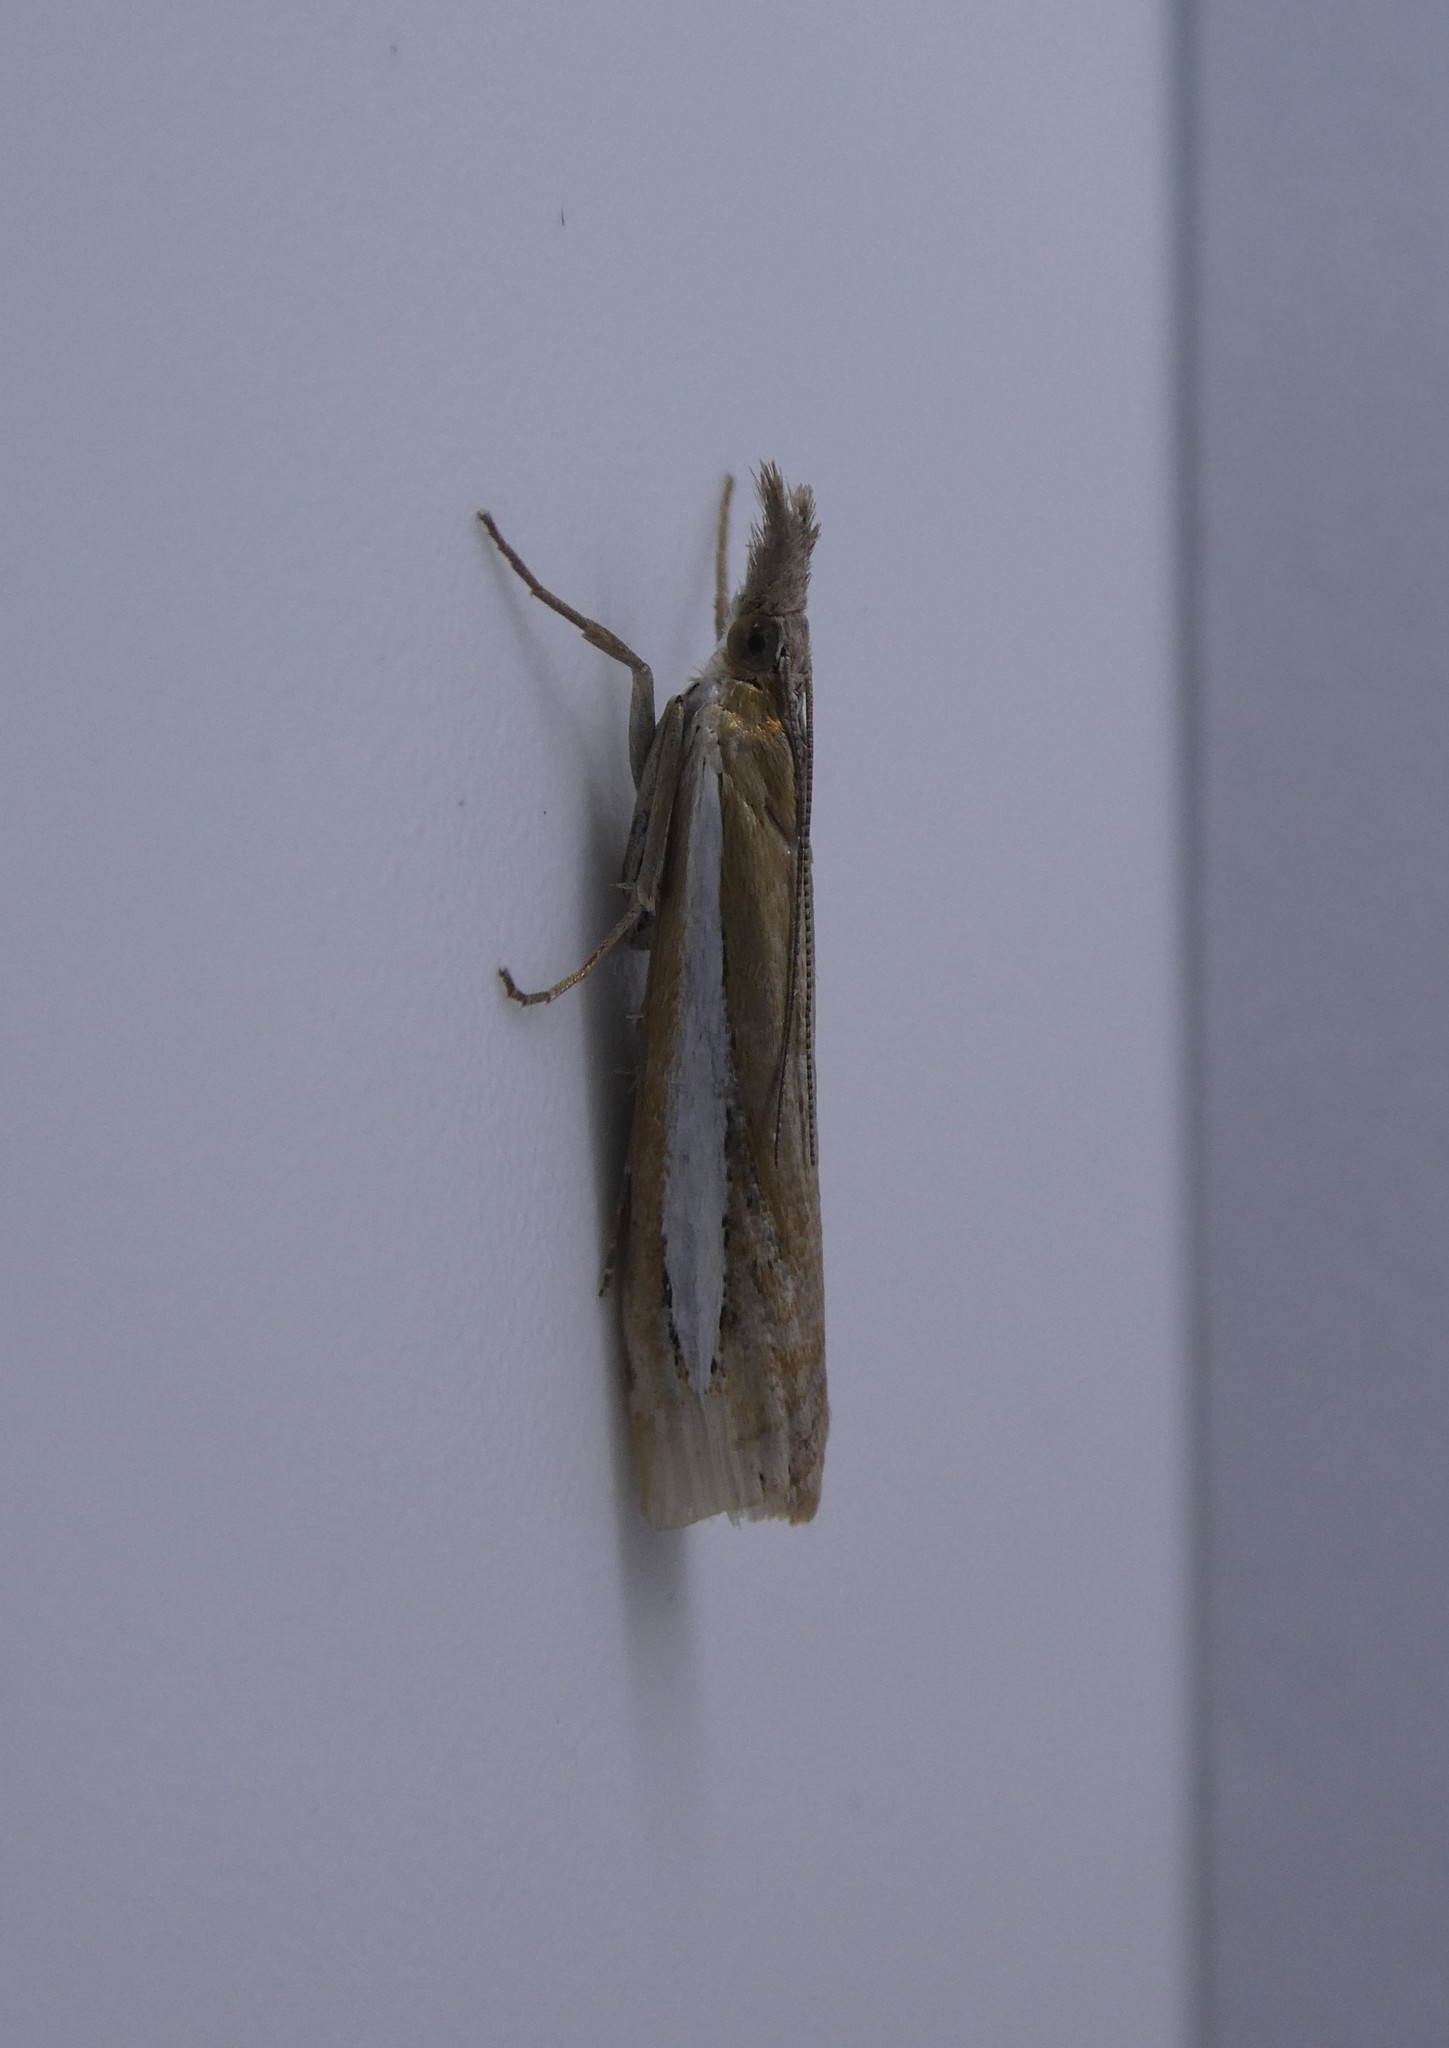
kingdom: Animalia
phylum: Arthropoda
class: Insecta
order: Lepidoptera
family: Crambidae
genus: Crambus
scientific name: Crambus praefectellus
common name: Common grass-veneer
